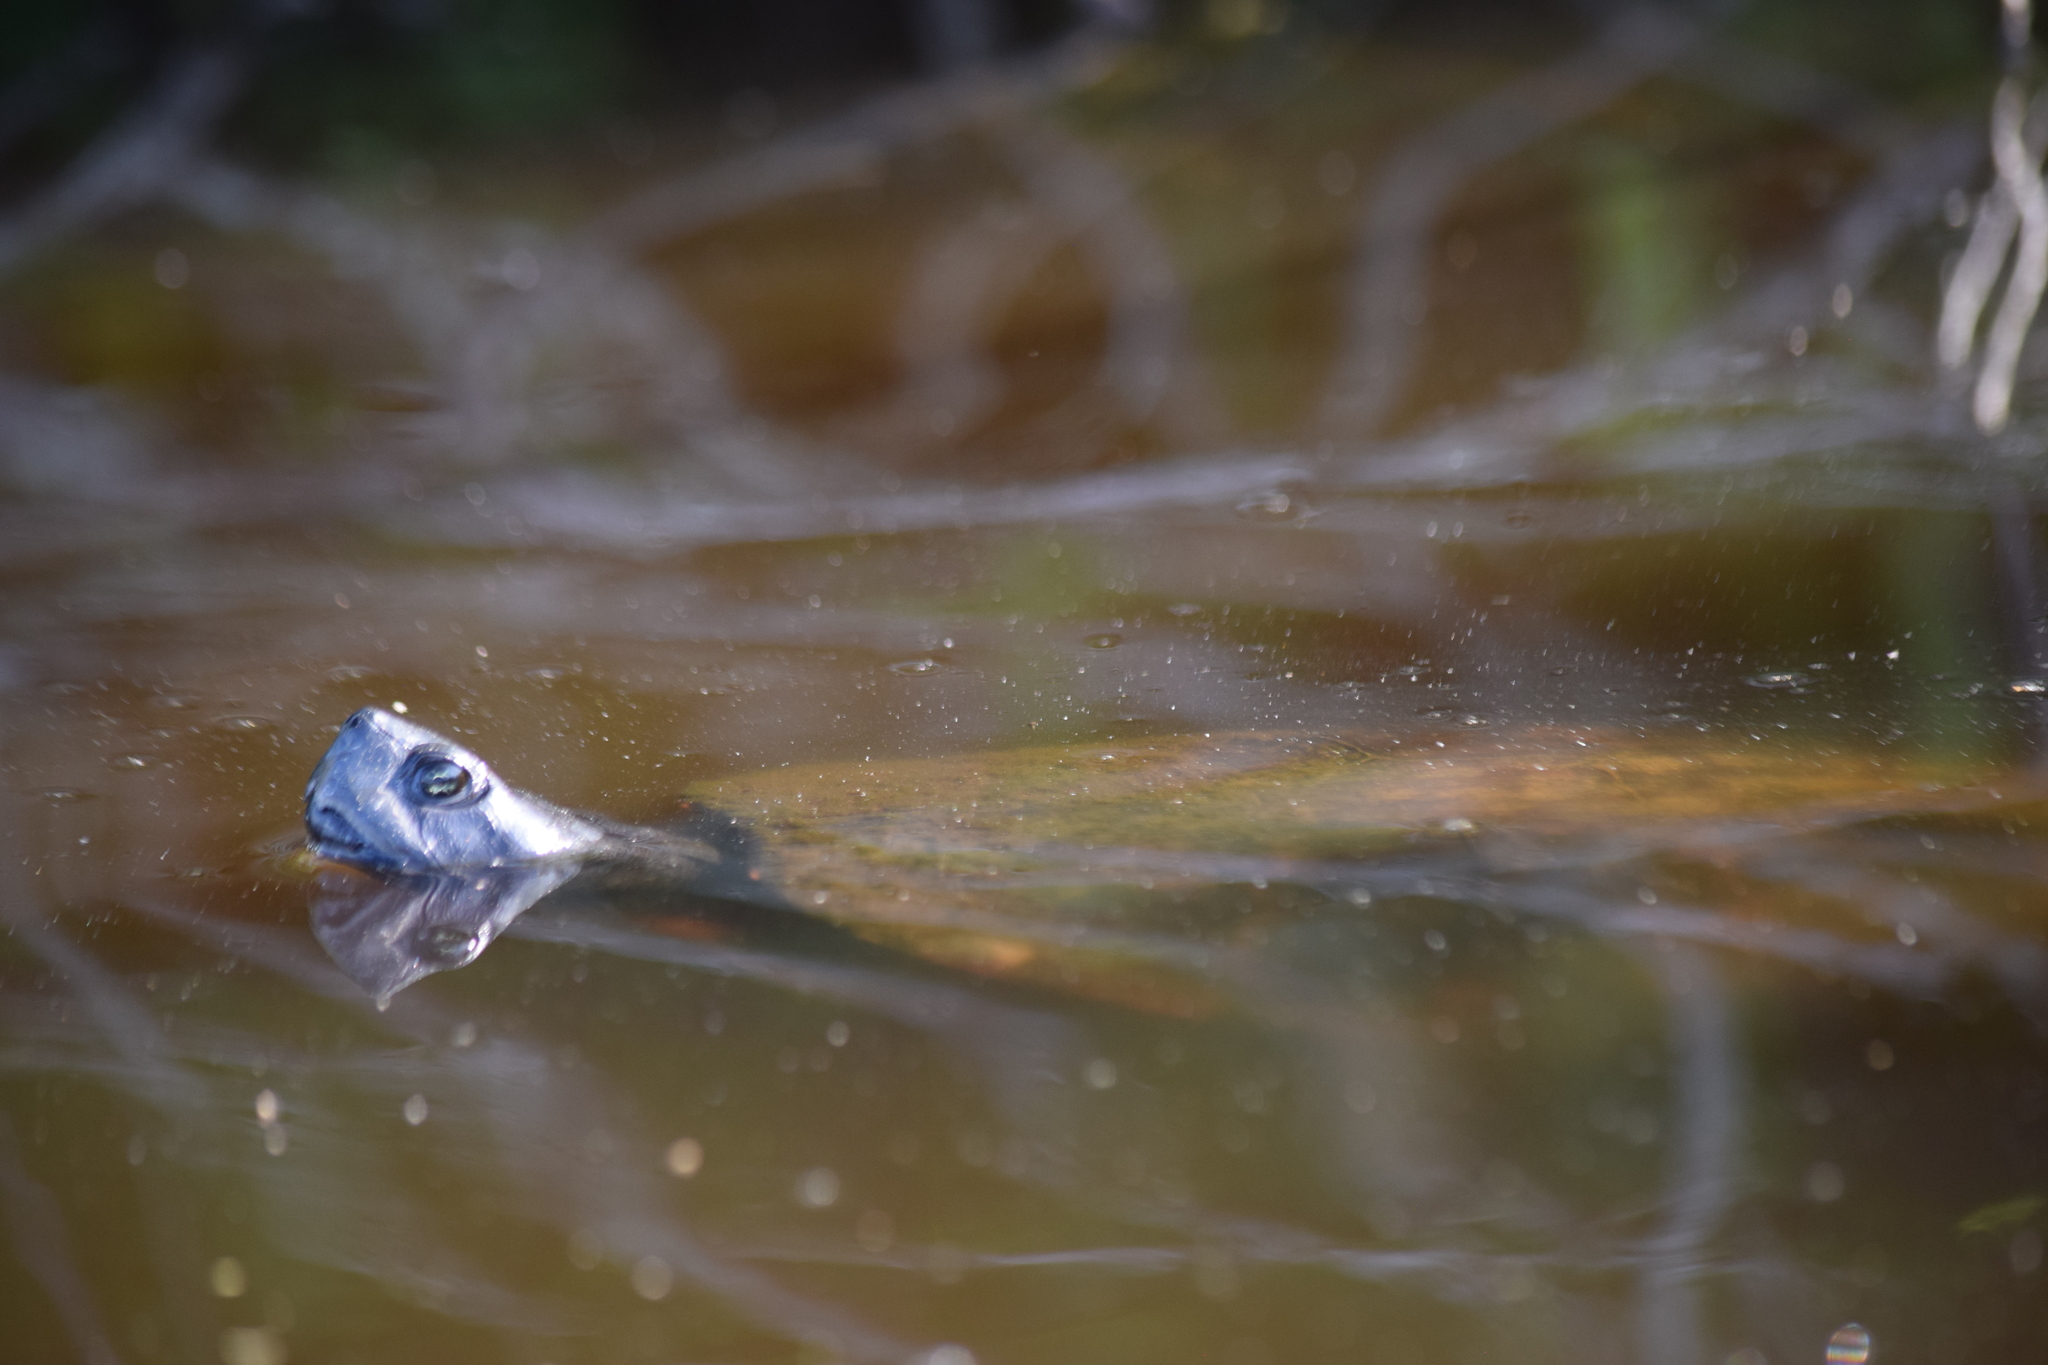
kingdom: Animalia
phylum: Chordata
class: Testudines
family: Emydidae
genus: Pseudemys
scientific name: Pseudemys rubriventris
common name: American red-bellied turtle
